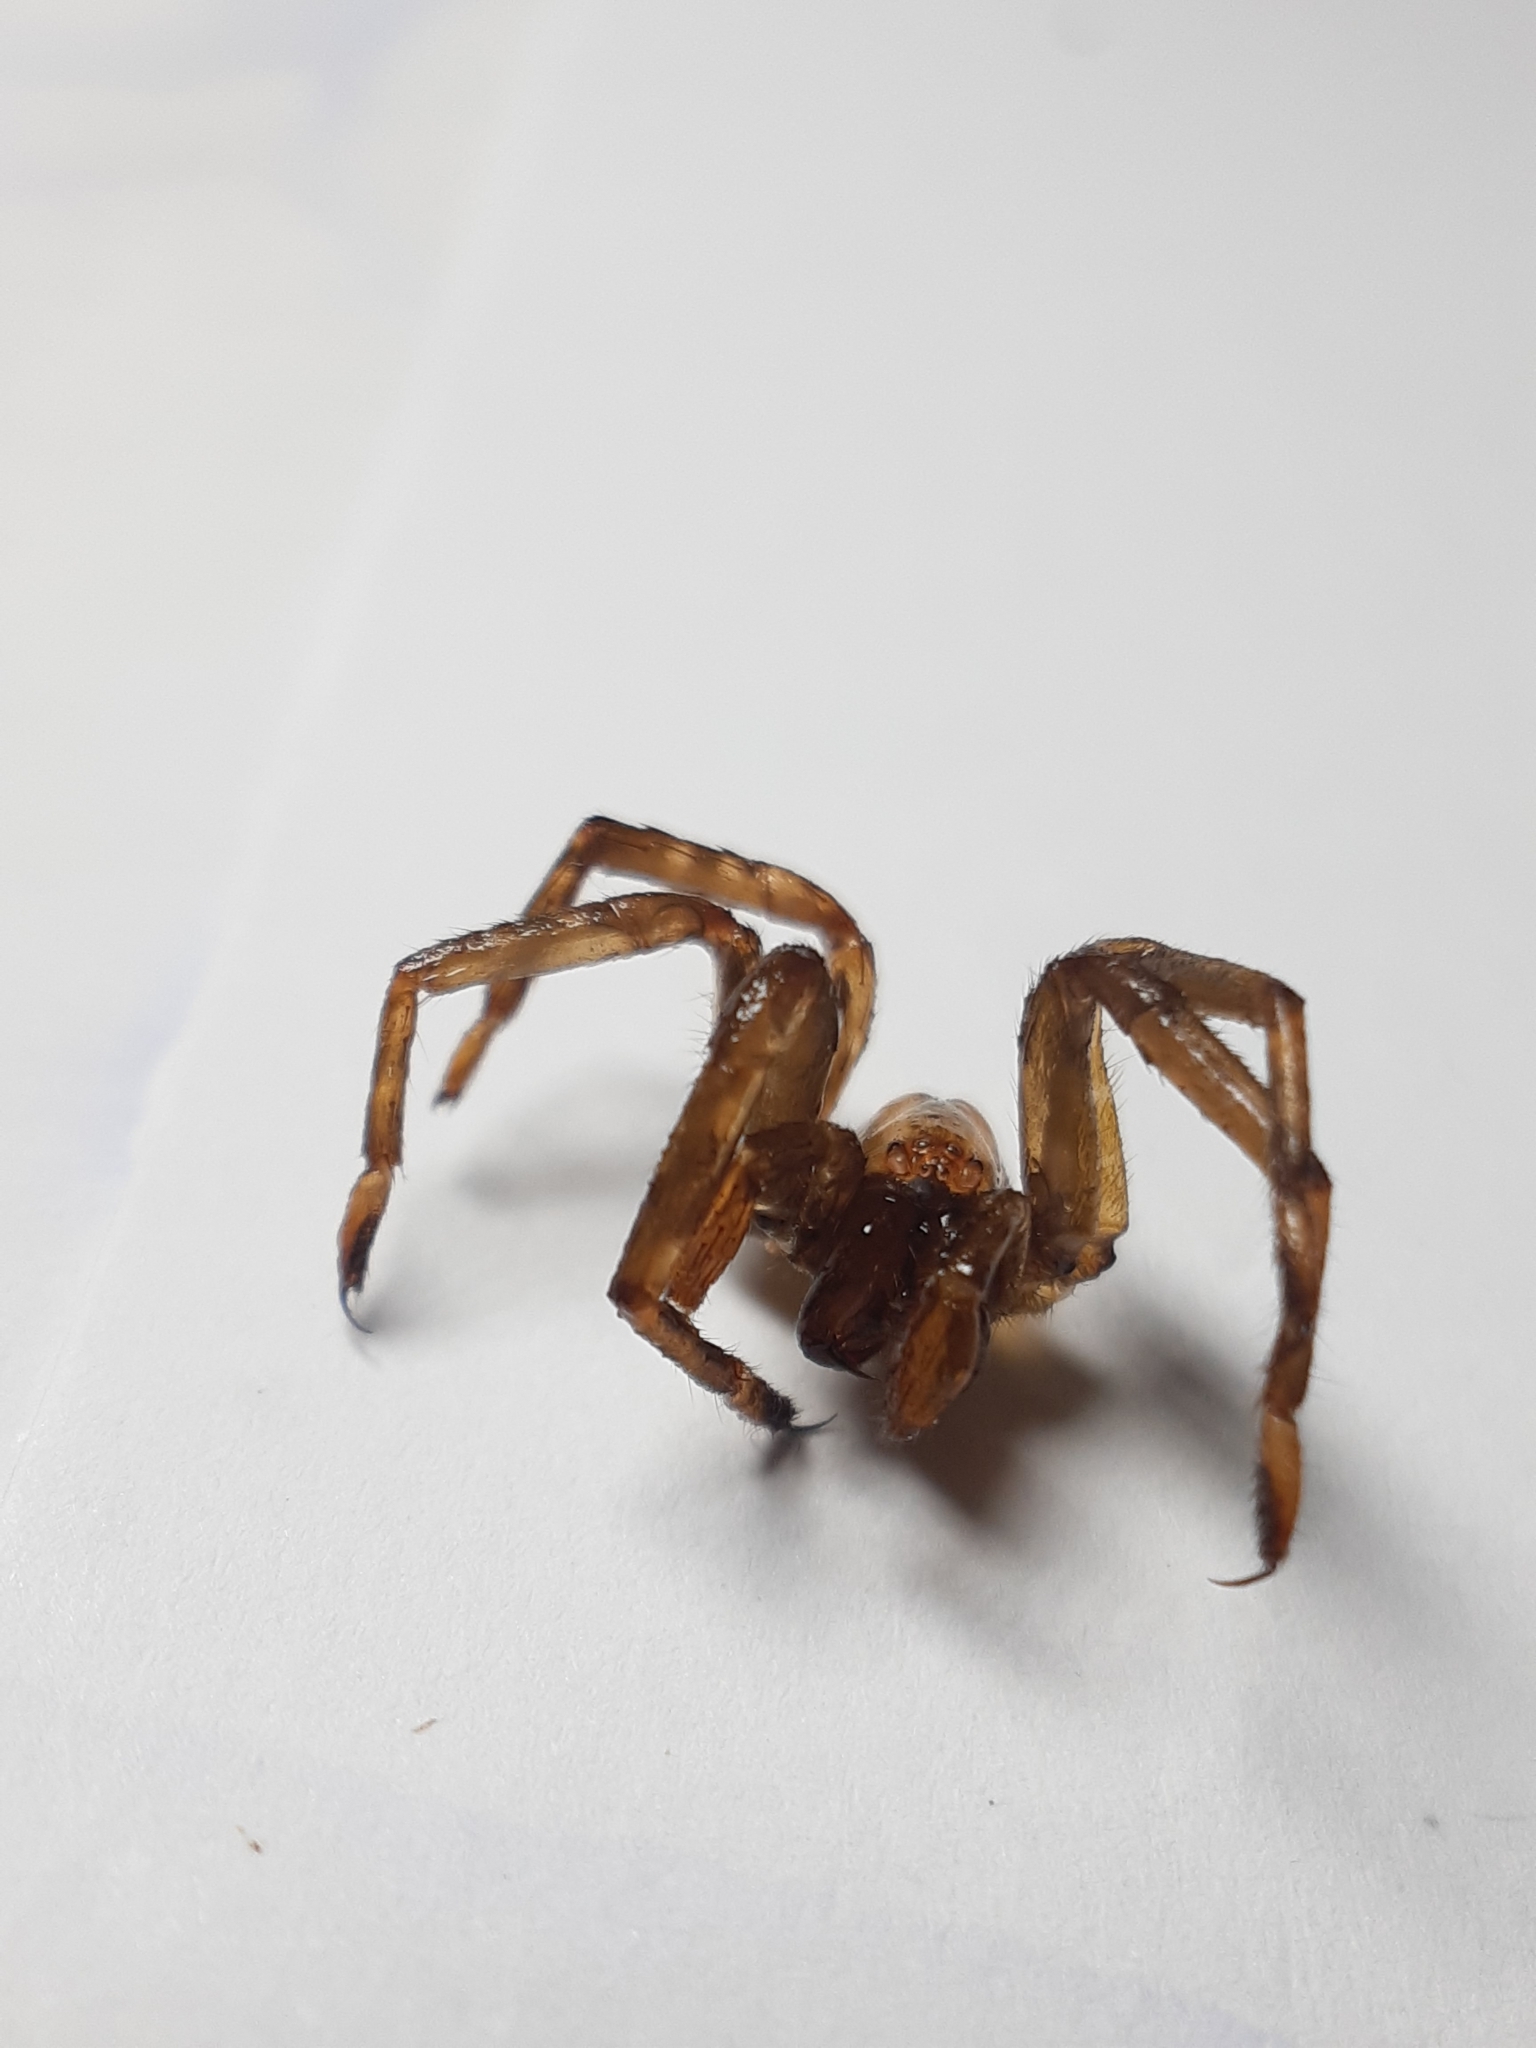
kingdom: Animalia
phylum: Arthropoda
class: Arachnida
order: Araneae
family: Gradungulidae
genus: Gradungula
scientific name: Gradungula sorenseni
